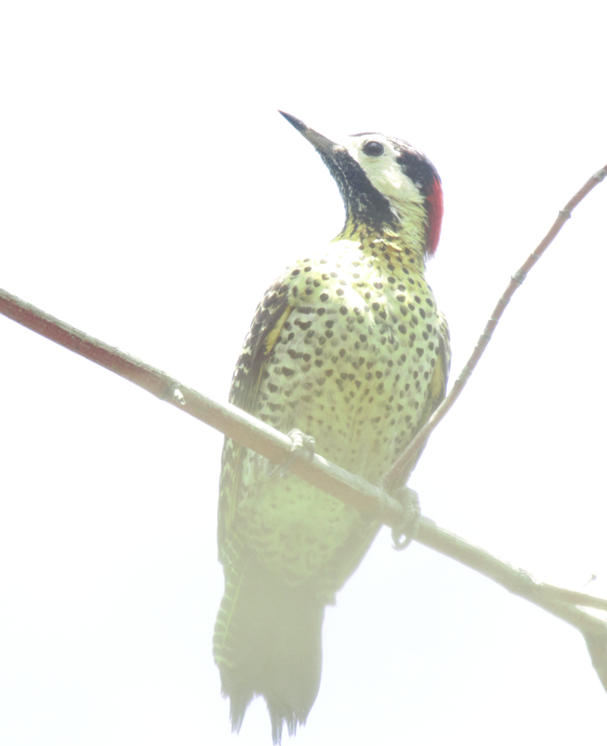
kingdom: Animalia
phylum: Chordata
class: Aves
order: Piciformes
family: Picidae
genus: Colaptes
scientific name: Colaptes melanochloros
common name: Green-barred woodpecker
